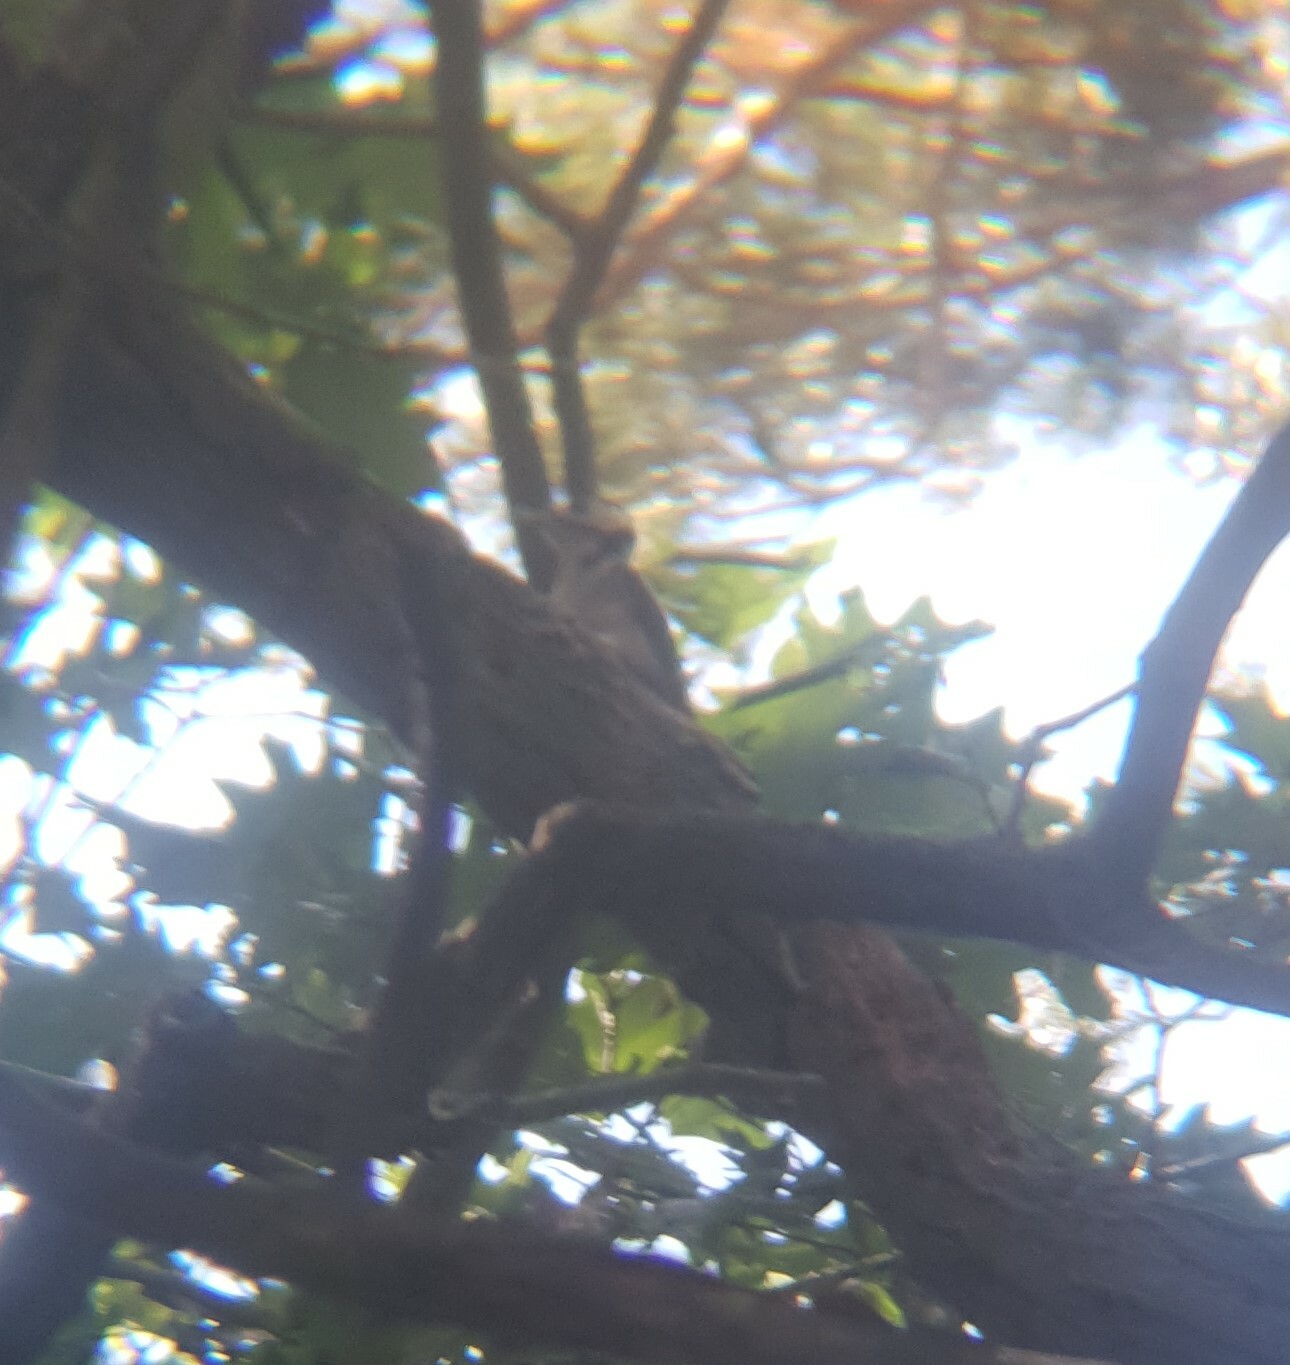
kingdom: Animalia
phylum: Chordata
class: Aves
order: Piciformes
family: Picidae
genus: Dendrocopos
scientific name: Dendrocopos major
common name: Great spotted woodpecker
